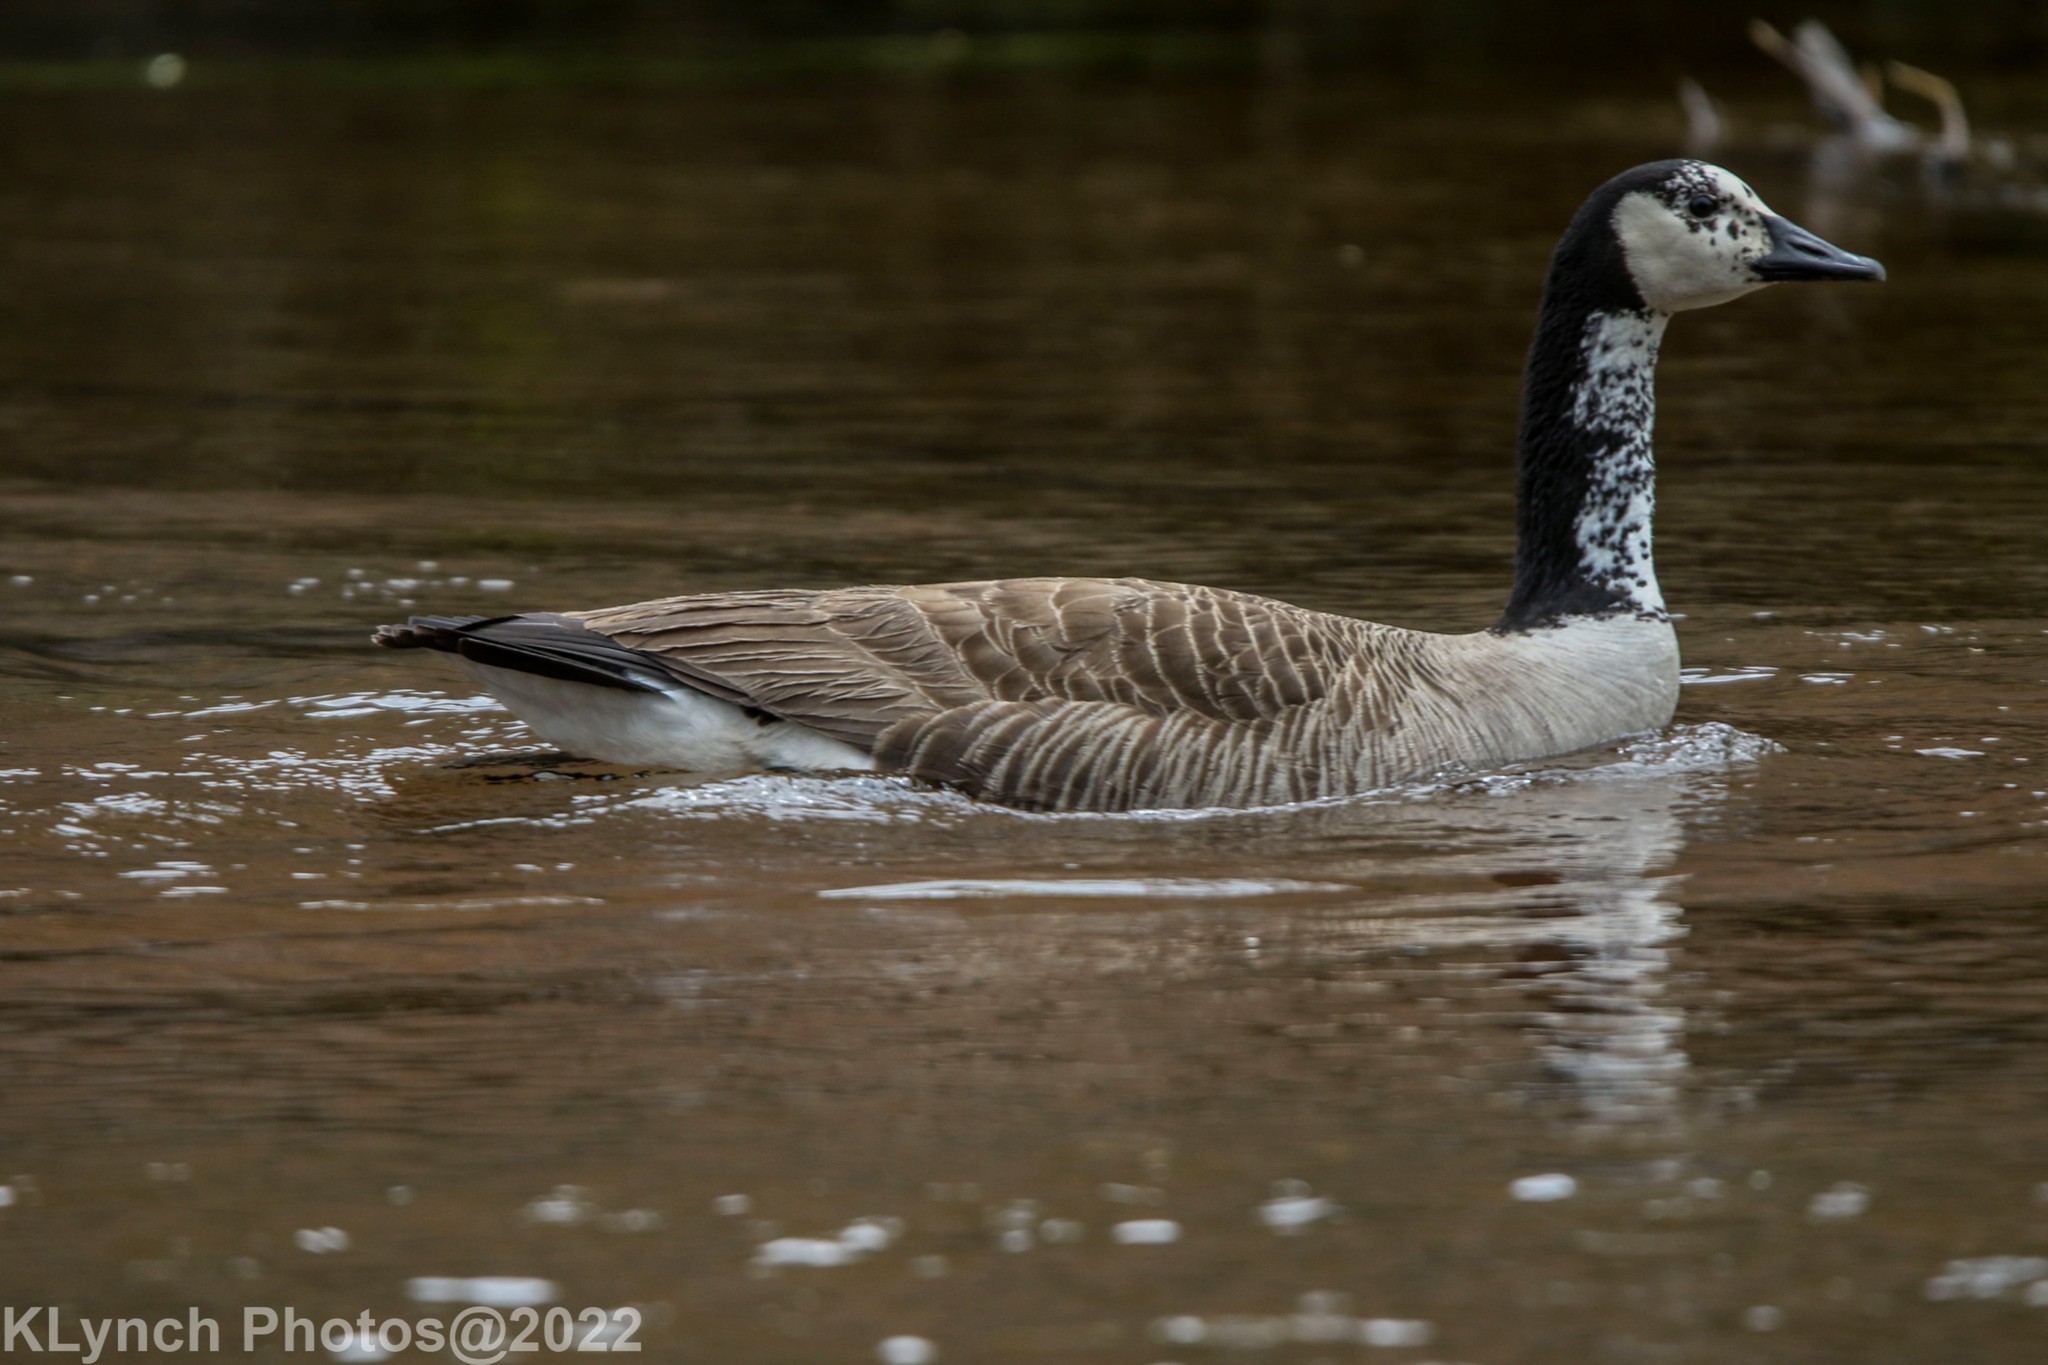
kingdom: Animalia
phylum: Chordata
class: Aves
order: Anseriformes
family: Anatidae
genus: Branta
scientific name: Branta canadensis
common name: Canada goose
